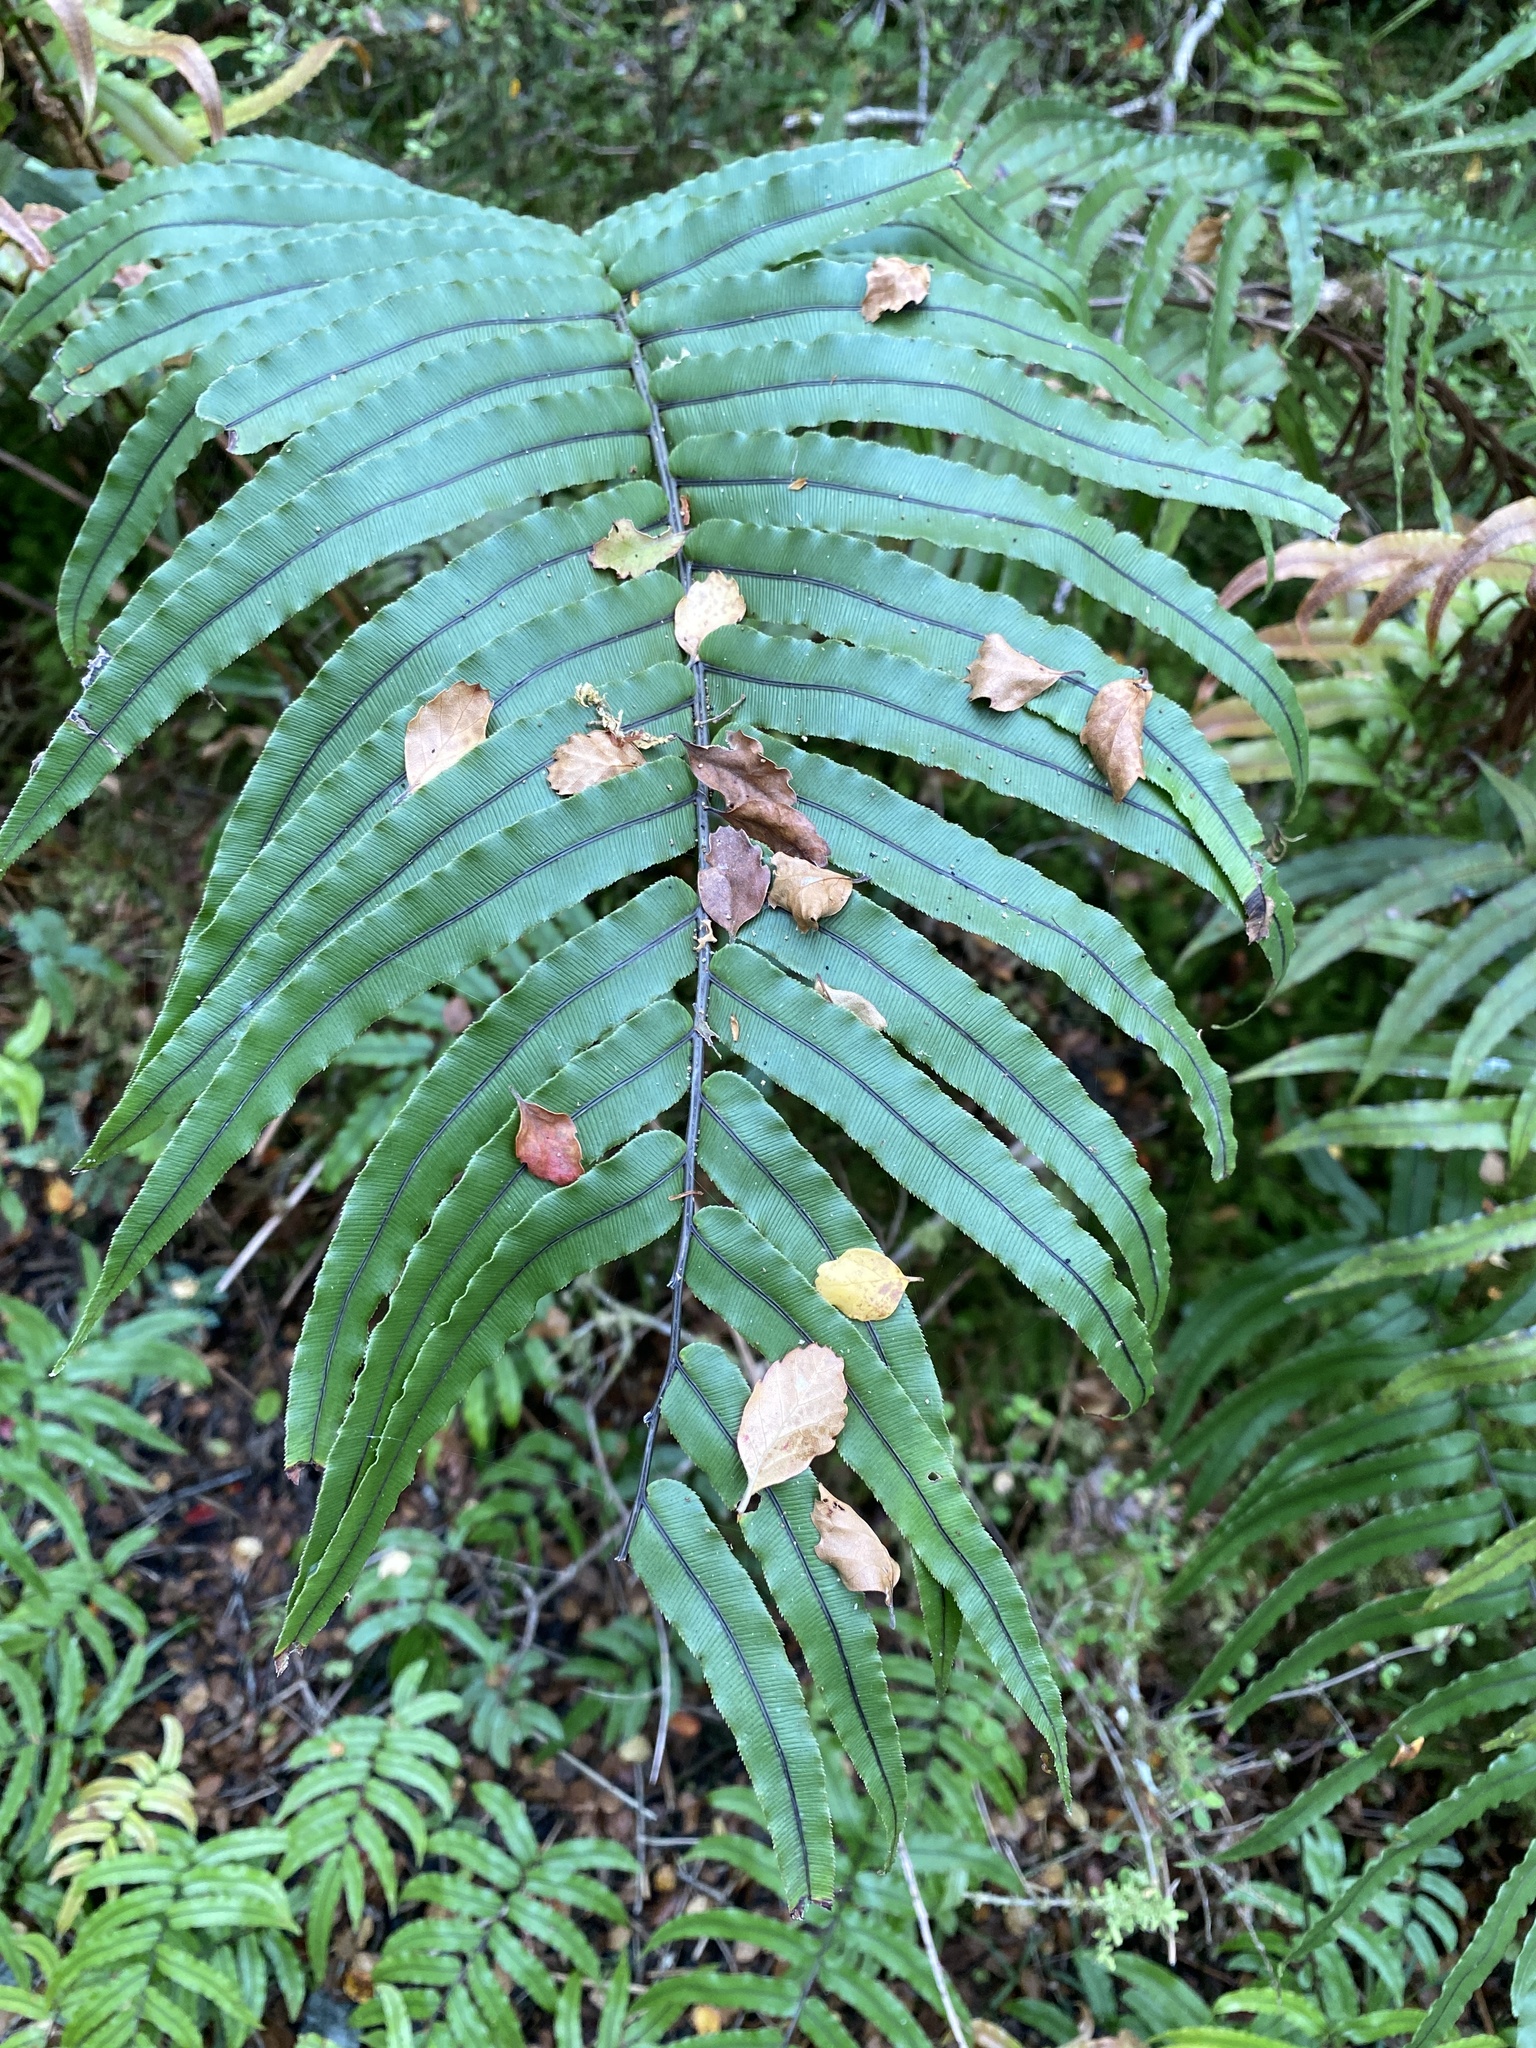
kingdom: Plantae
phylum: Tracheophyta
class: Polypodiopsida
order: Polypodiales
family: Blechnaceae
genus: Parablechnum
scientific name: Parablechnum procerum
